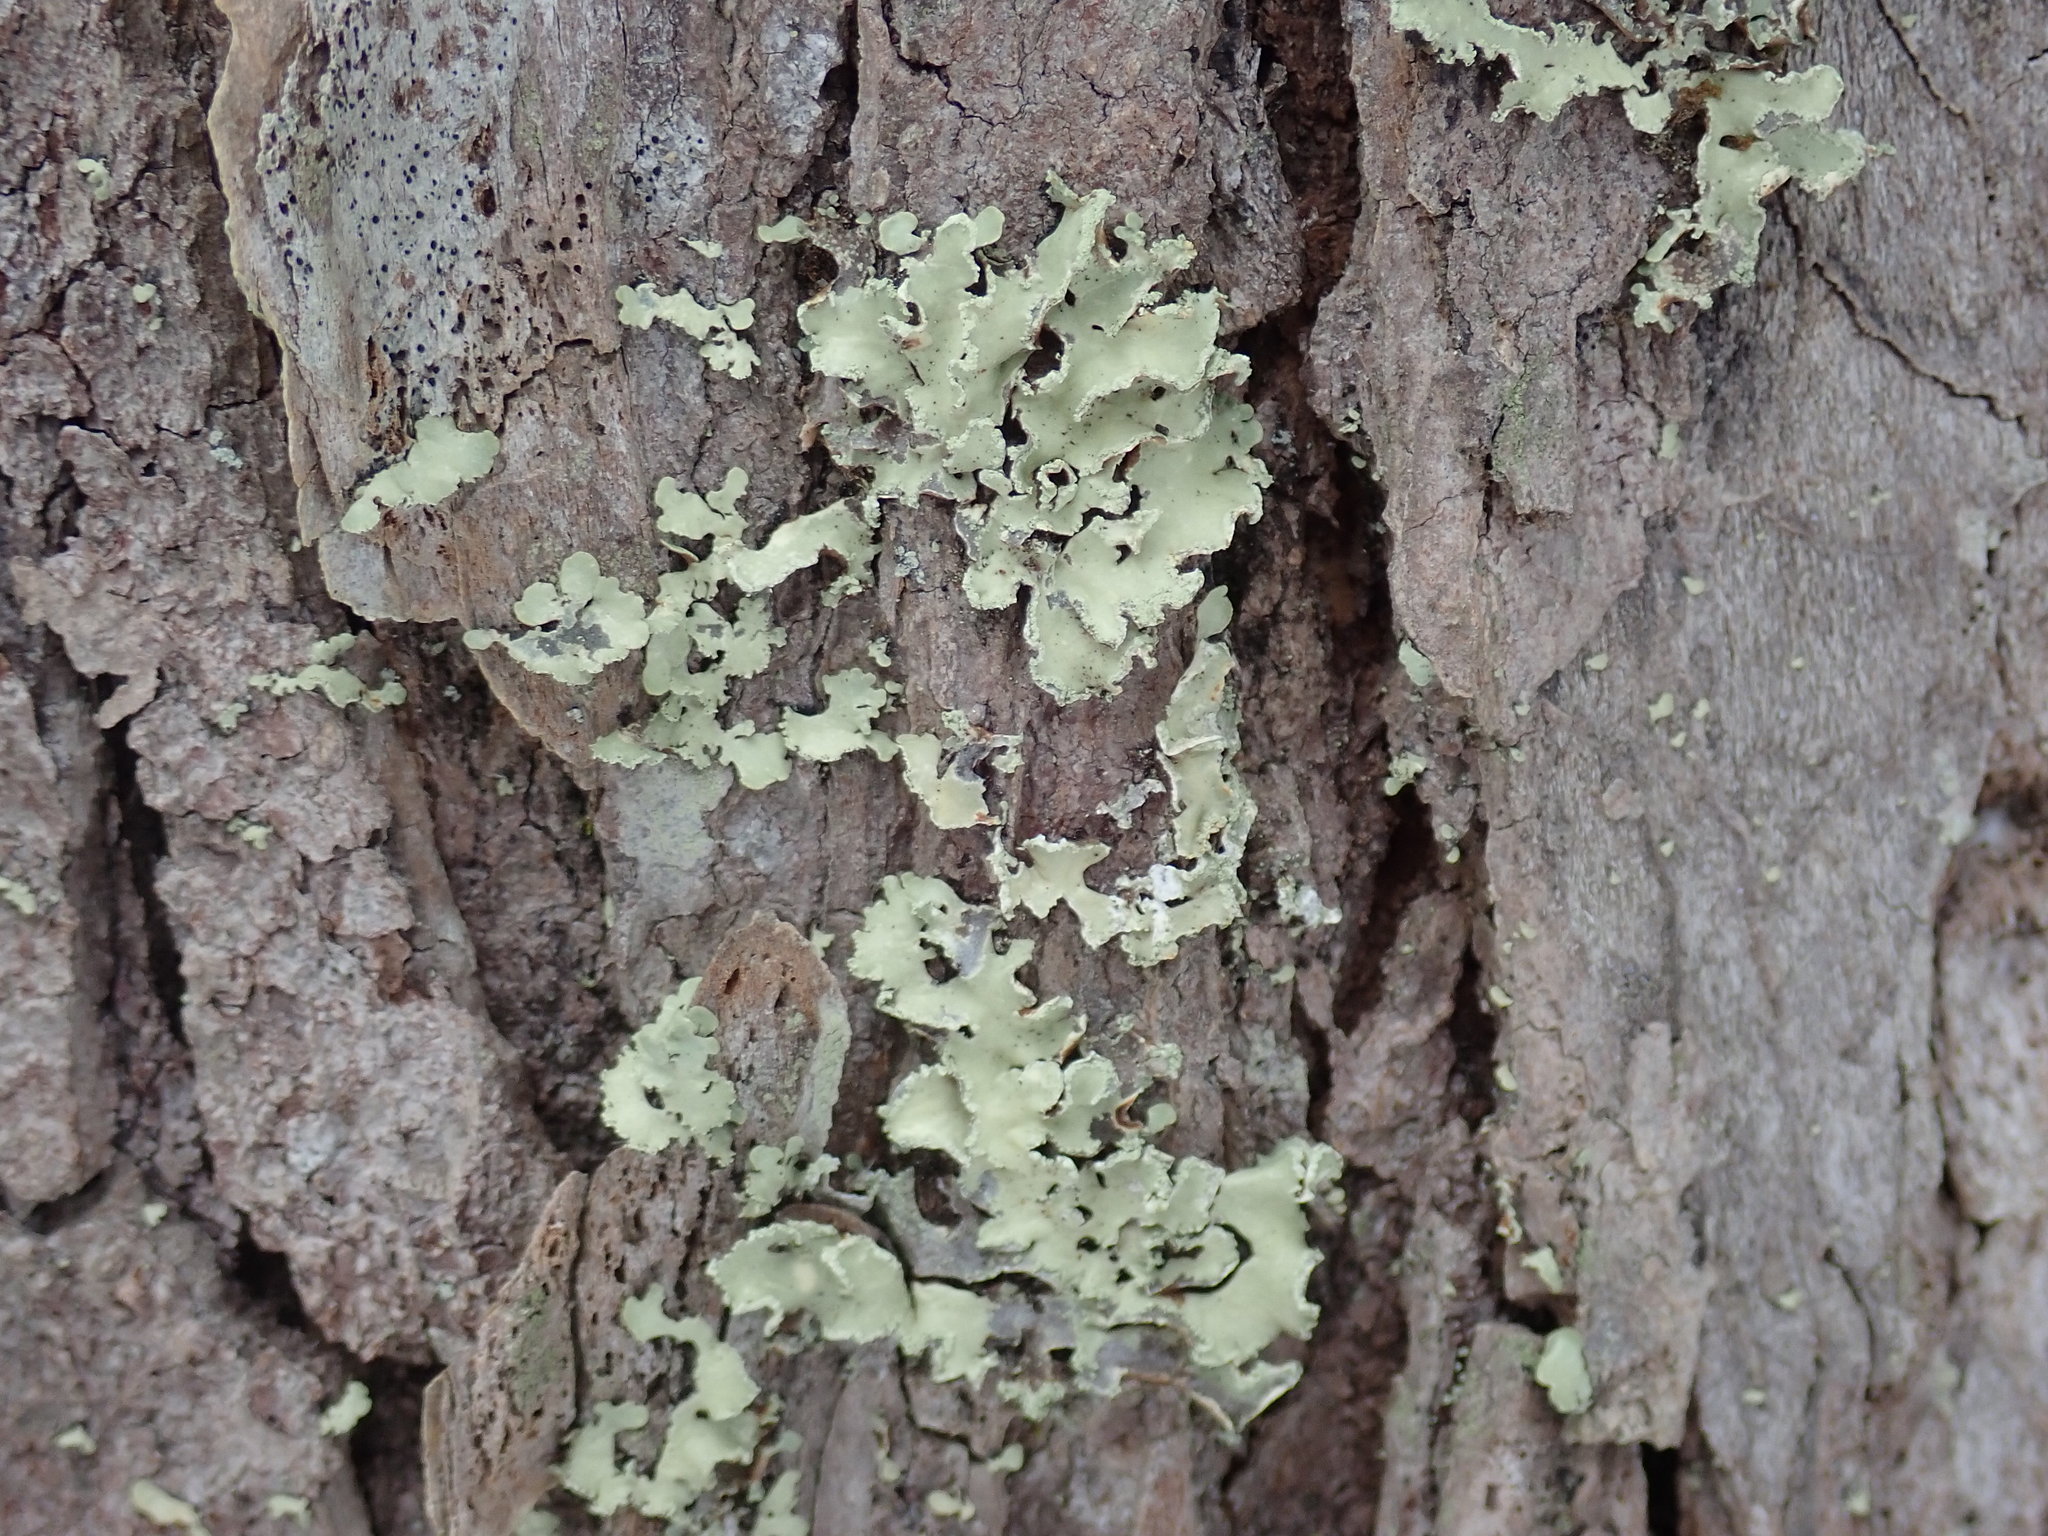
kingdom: Fungi
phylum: Ascomycota
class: Lecanoromycetes
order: Lecanorales
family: Parmeliaceae
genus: Usnocetraria
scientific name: Usnocetraria oakesiana
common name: Yellow ribbon lichen
